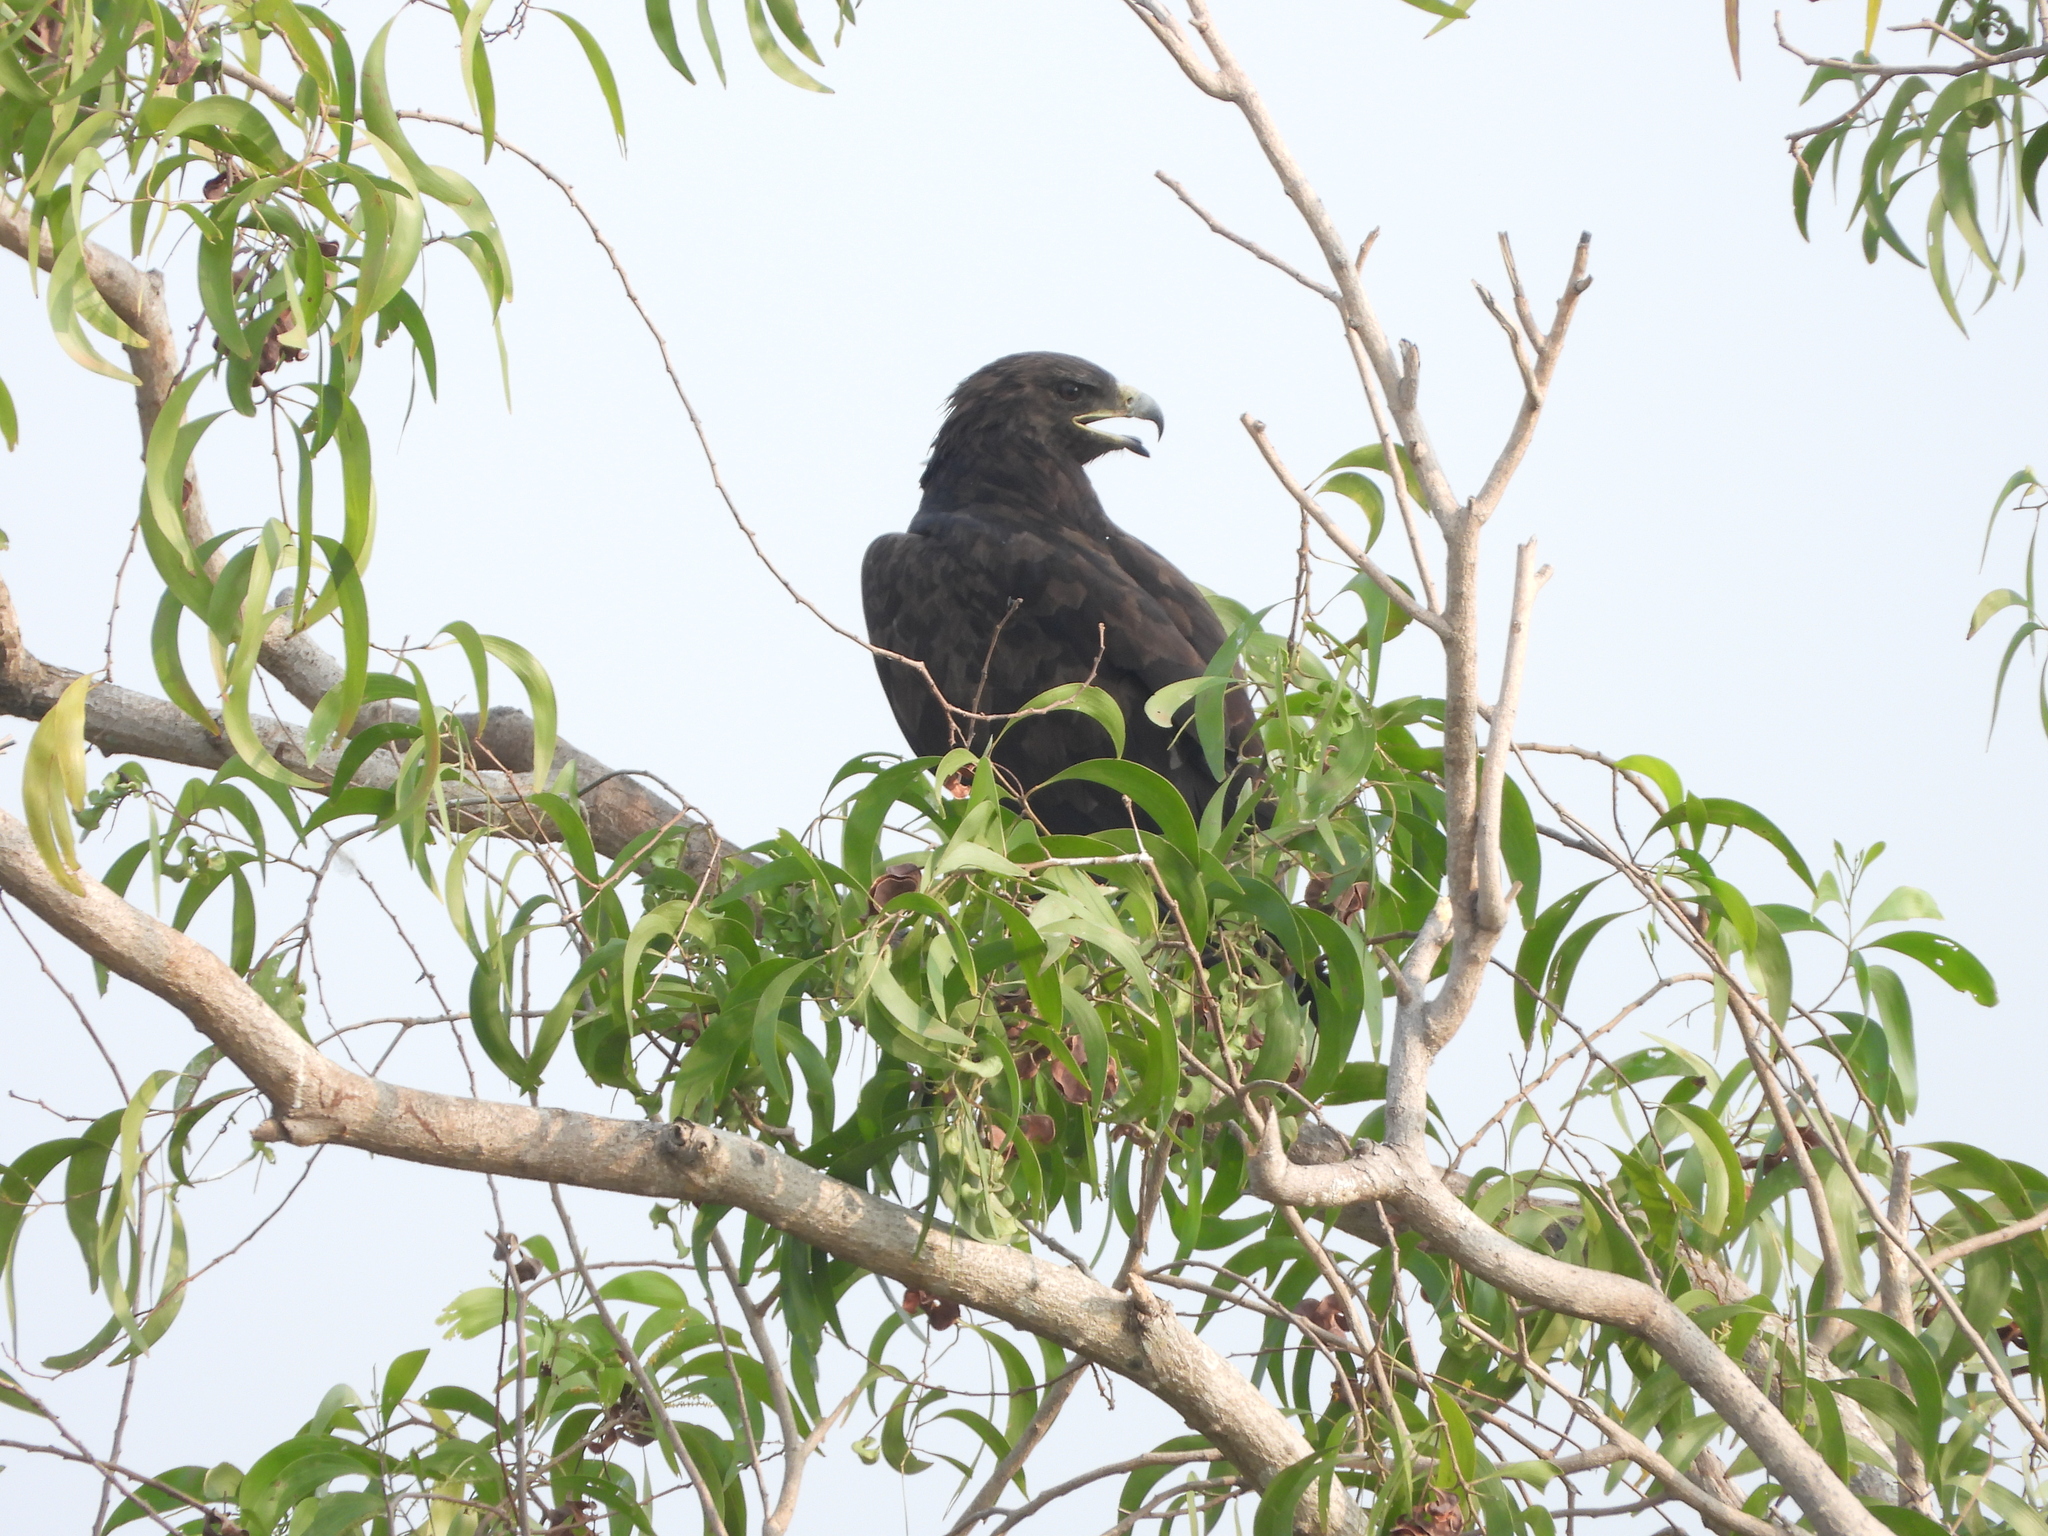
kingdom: Animalia
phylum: Chordata
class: Aves
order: Accipitriformes
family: Accipitridae
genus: Aquila
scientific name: Aquila clanga
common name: Greater spotted eagle
